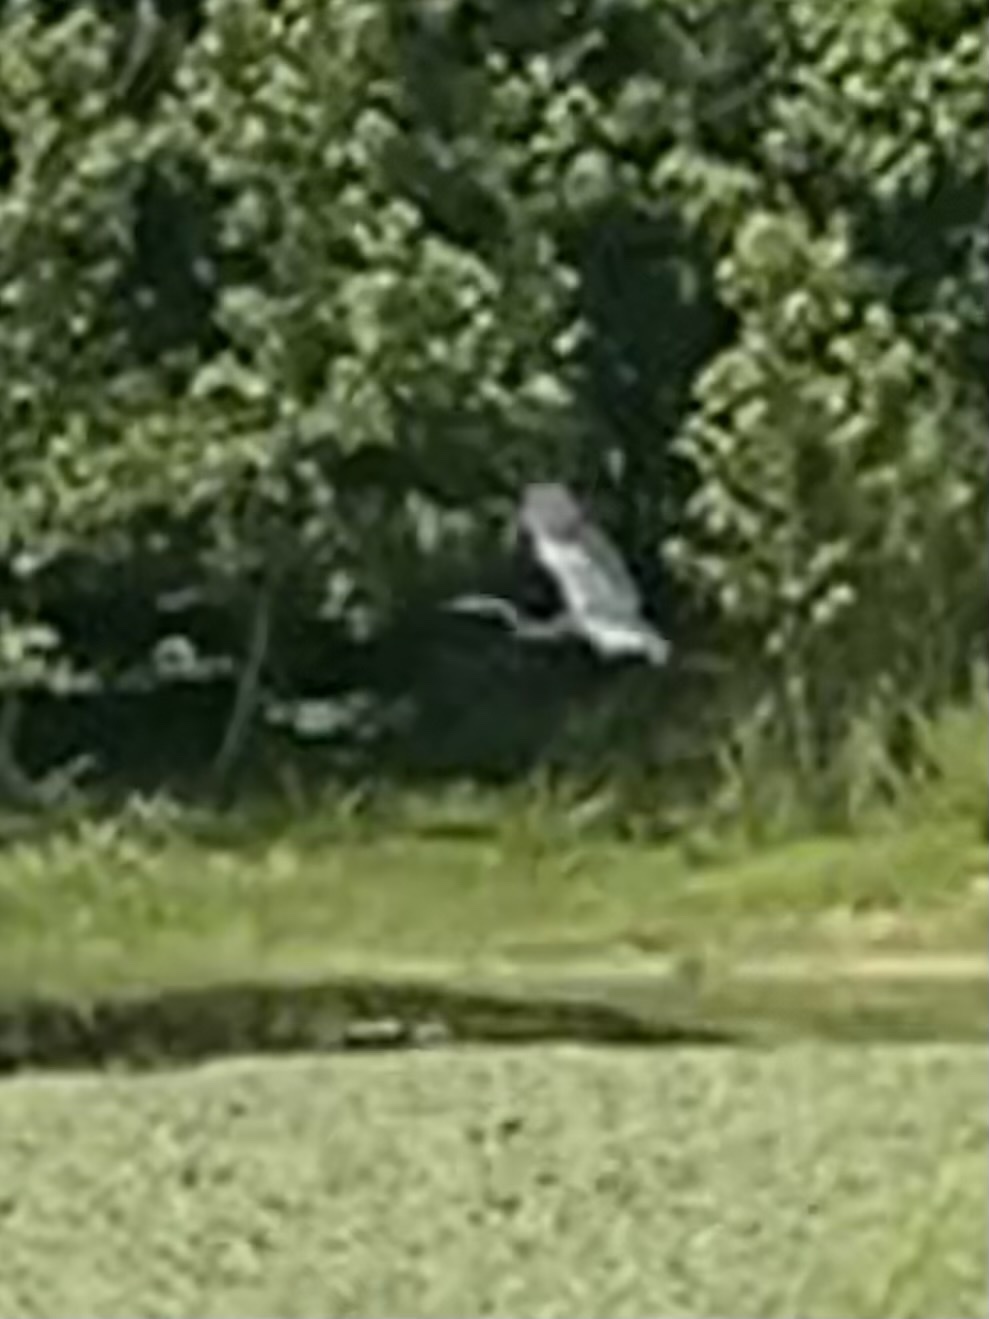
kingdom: Animalia
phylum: Chordata
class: Aves
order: Pelecaniformes
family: Ardeidae
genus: Ardea
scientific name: Ardea herodias
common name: Great blue heron
